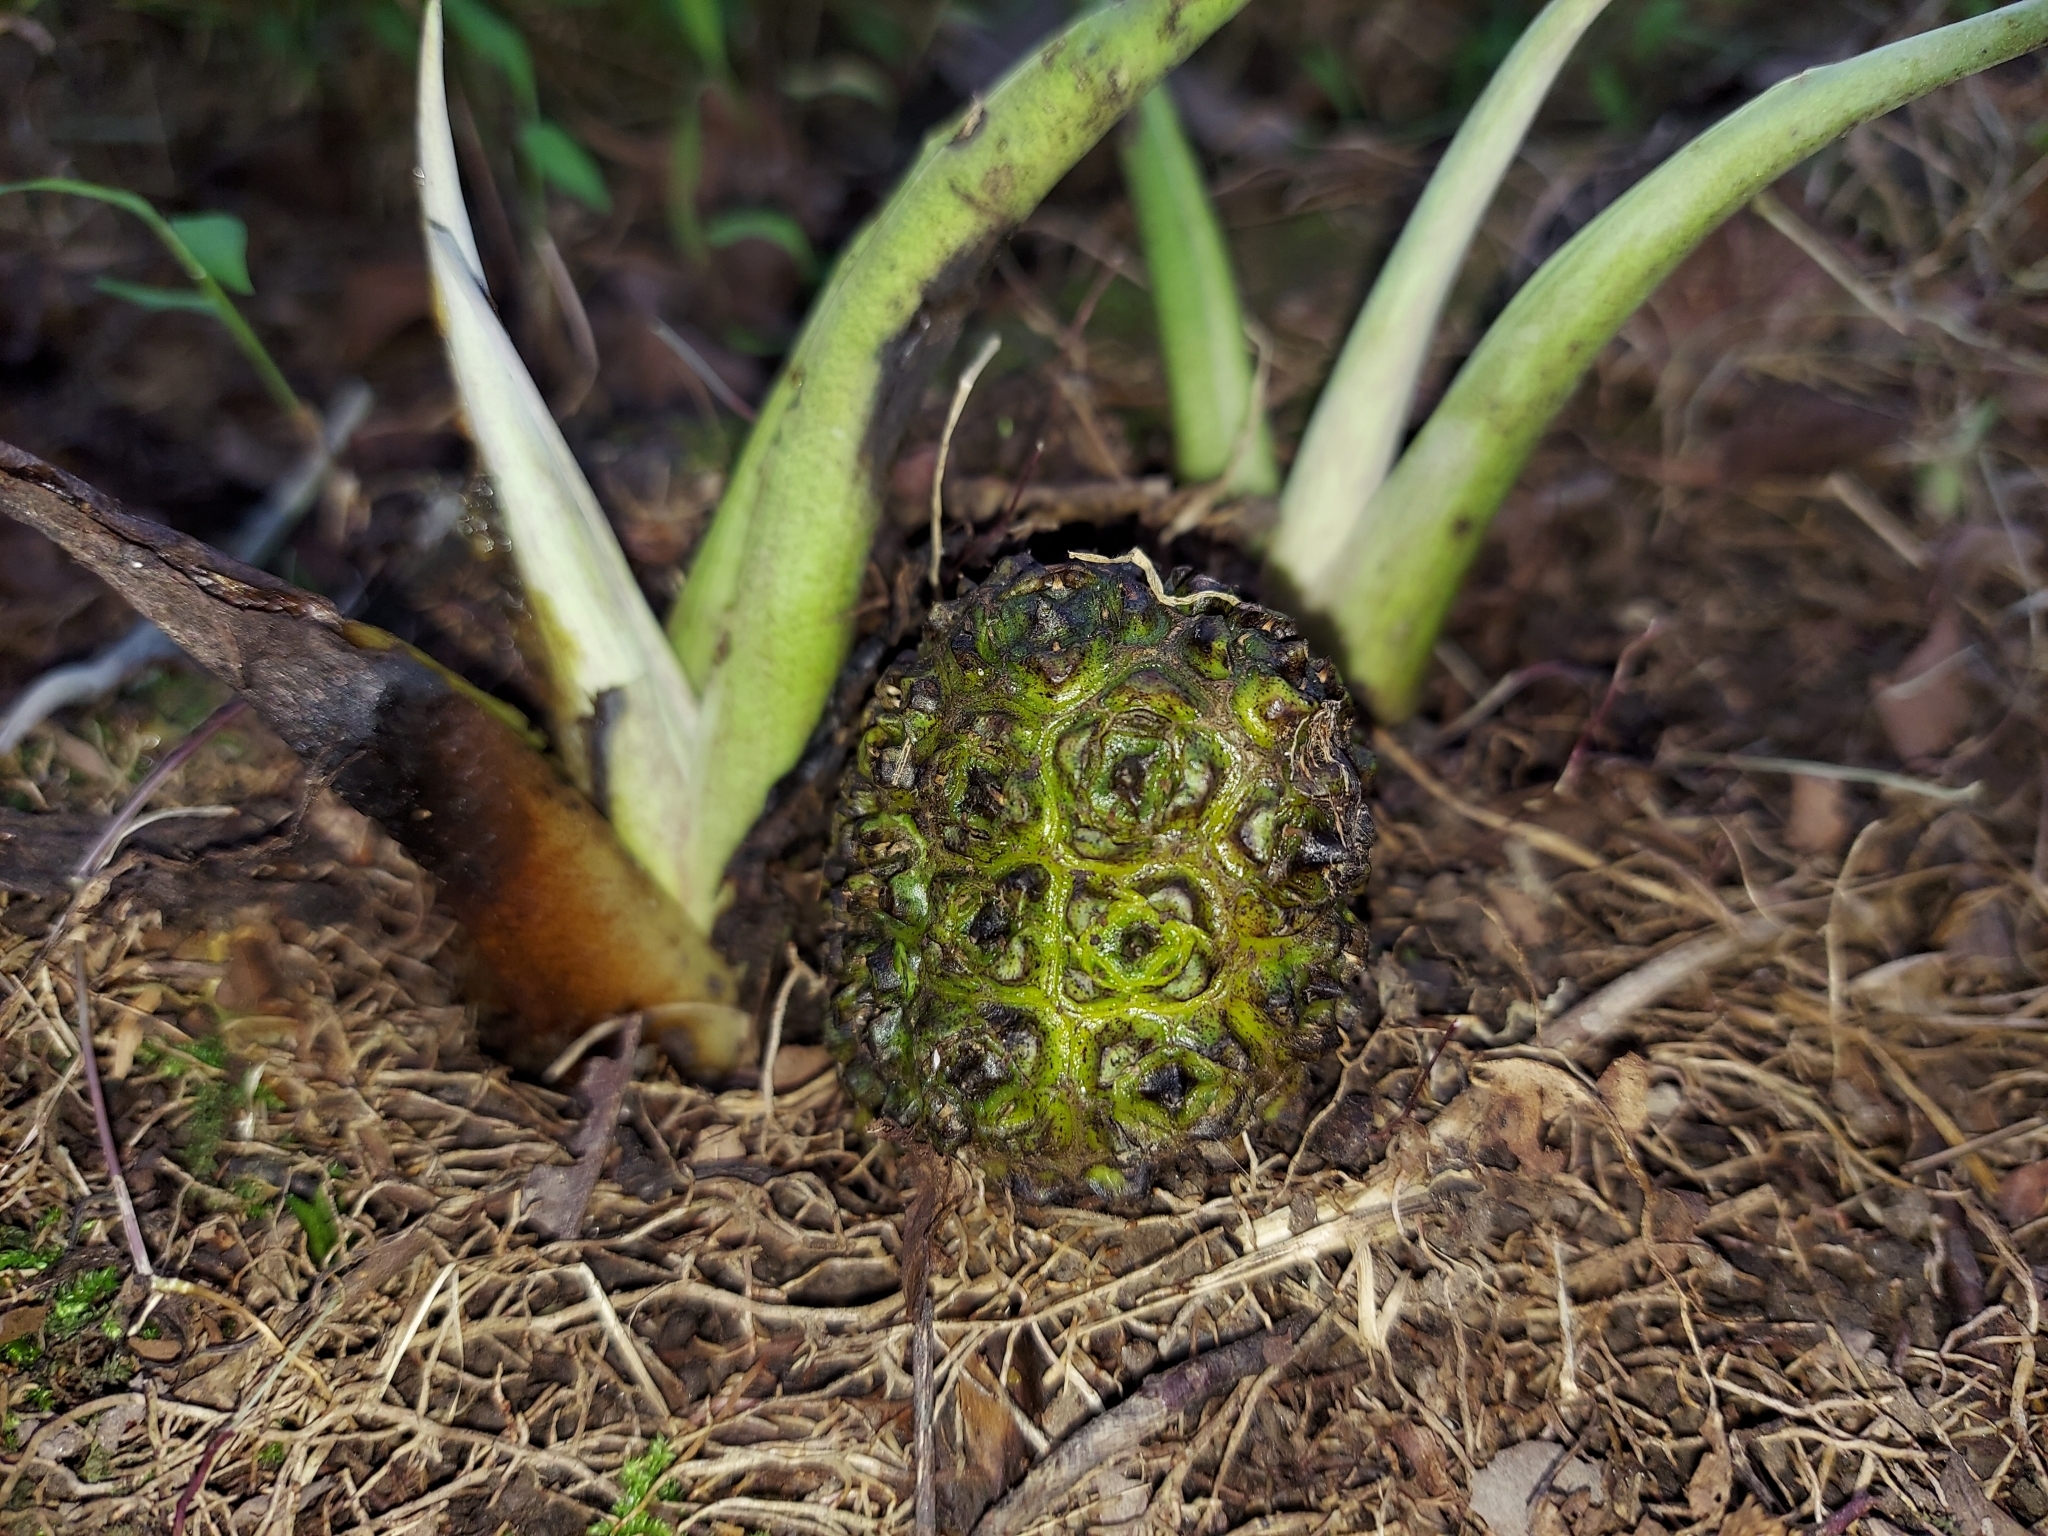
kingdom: Plantae
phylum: Tracheophyta
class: Liliopsida
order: Alismatales
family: Araceae
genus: Symplocarpus
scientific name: Symplocarpus foetidus
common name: Eastern skunk cabbage
